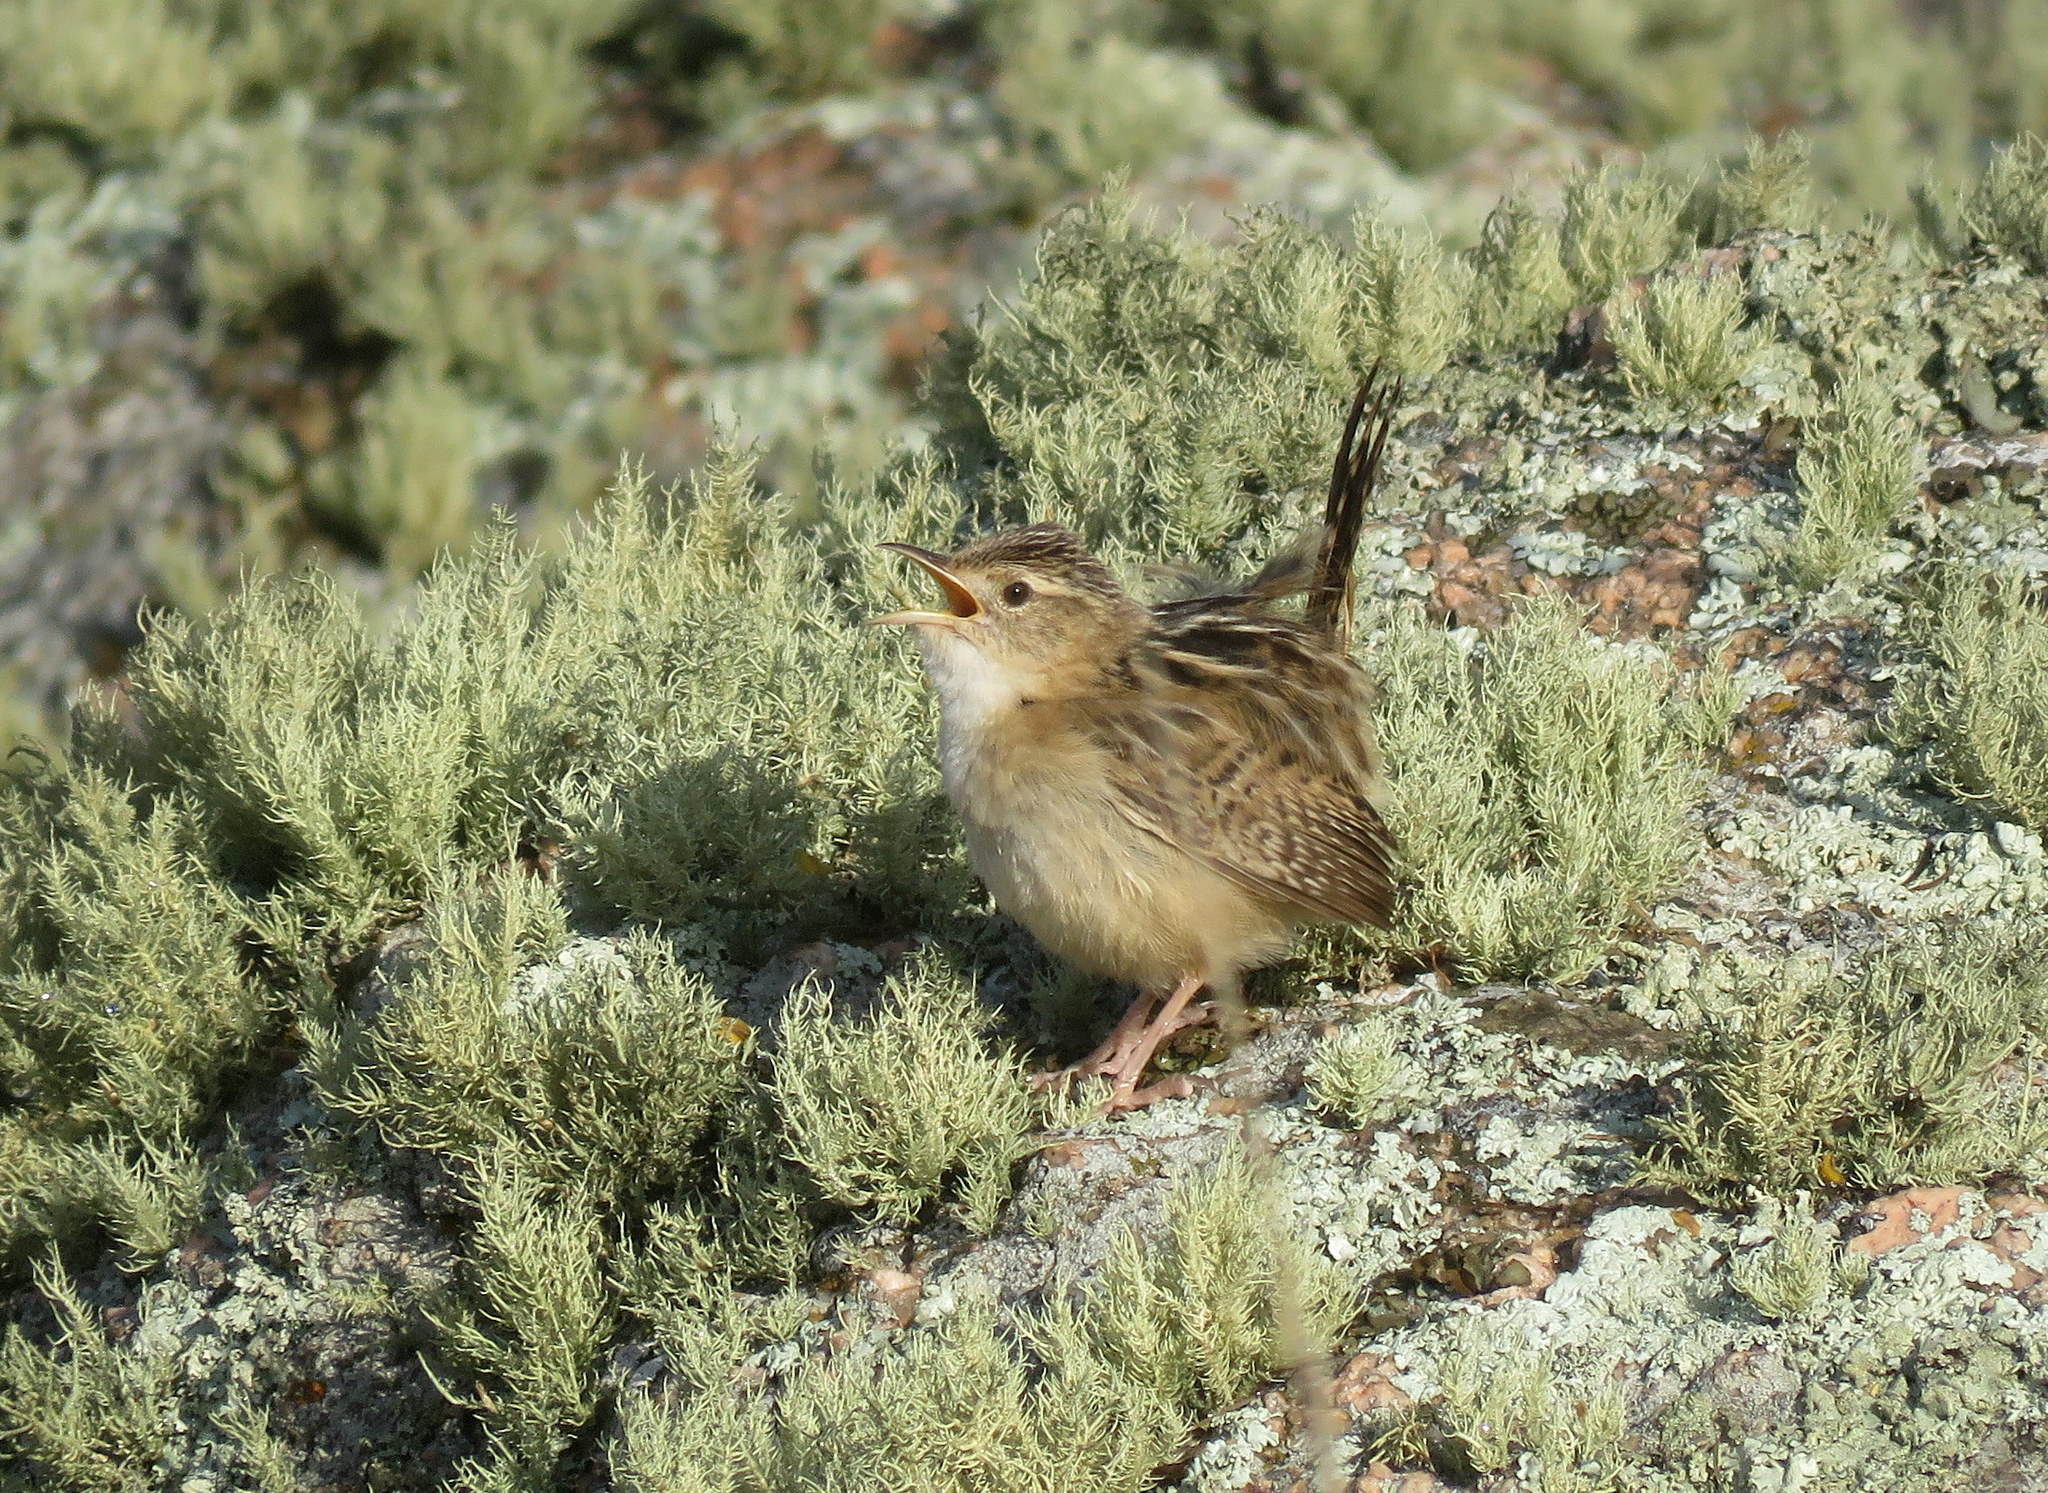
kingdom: Animalia
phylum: Chordata
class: Aves
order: Passeriformes
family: Troglodytidae
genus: Cistothorus
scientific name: Cistothorus platensis
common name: Sedge wren
